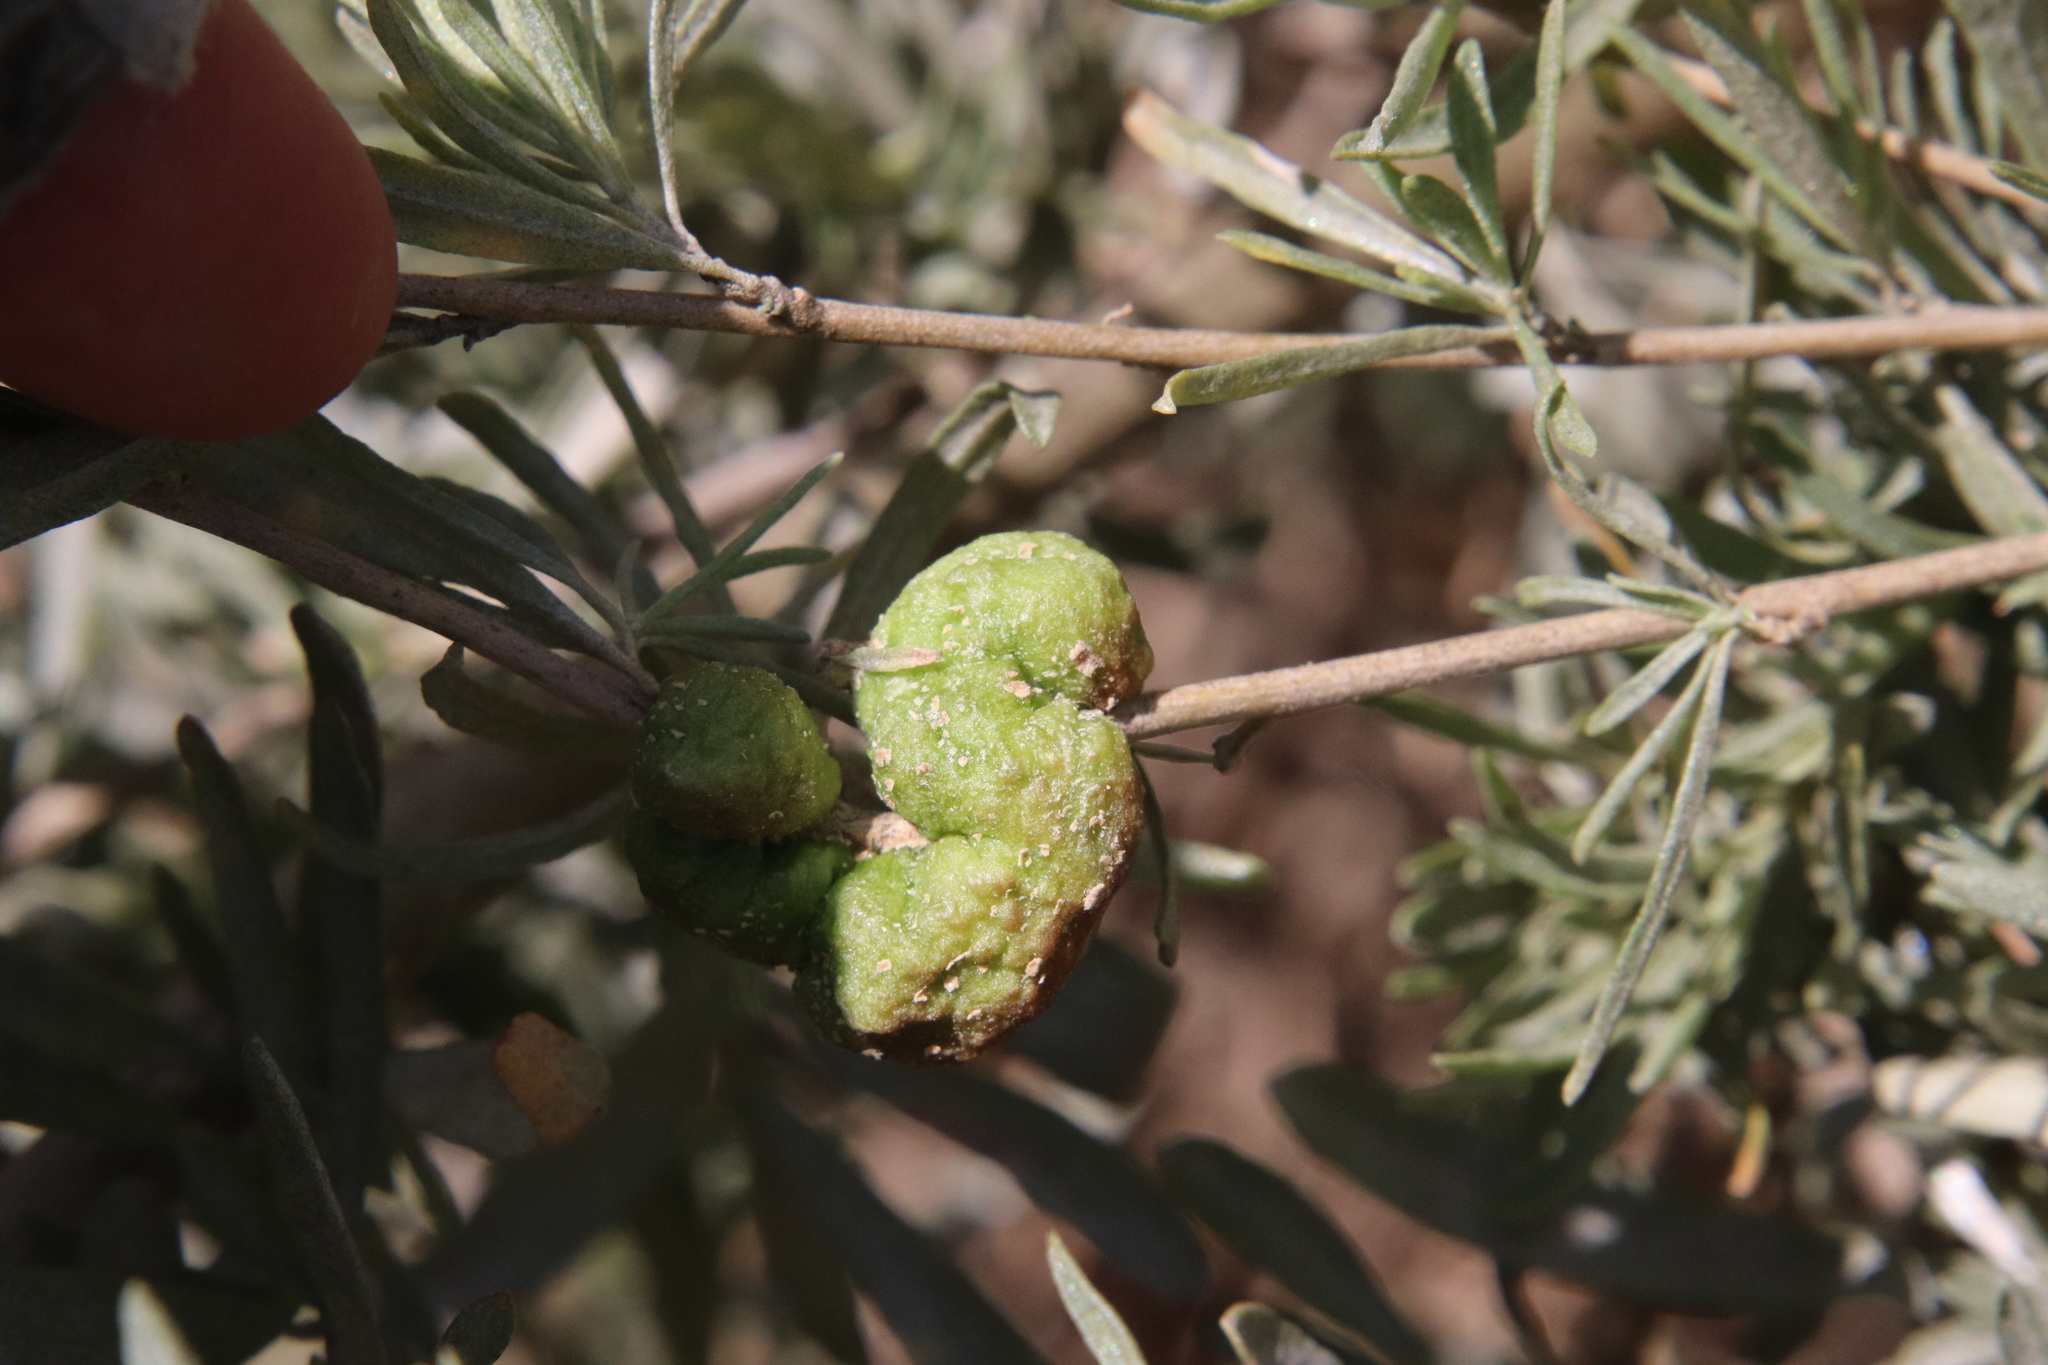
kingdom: Animalia
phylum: Arthropoda
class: Insecta
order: Diptera
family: Cecidomyiidae
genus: Asphondylia
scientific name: Asphondylia atriplicis
